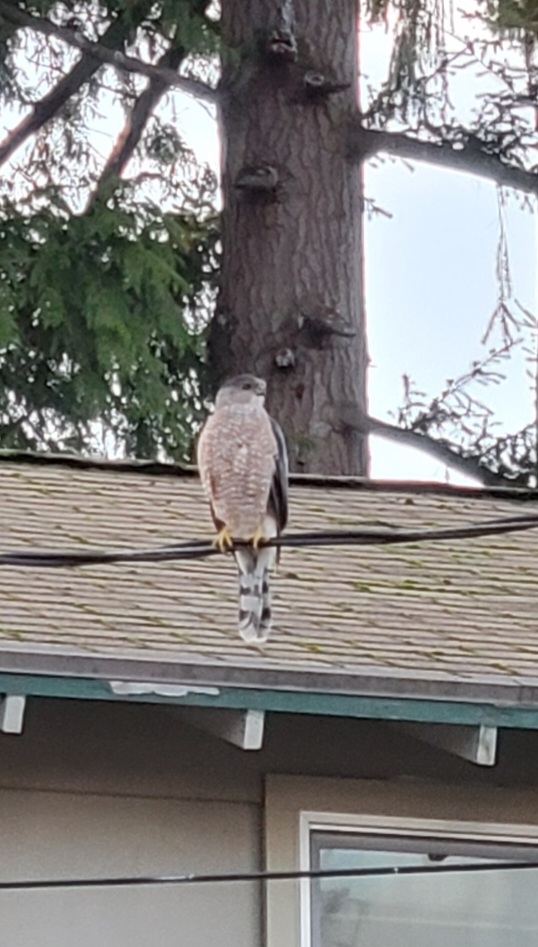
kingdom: Animalia
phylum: Chordata
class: Aves
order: Accipitriformes
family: Accipitridae
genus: Accipiter
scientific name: Accipiter cooperii
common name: Cooper's hawk
